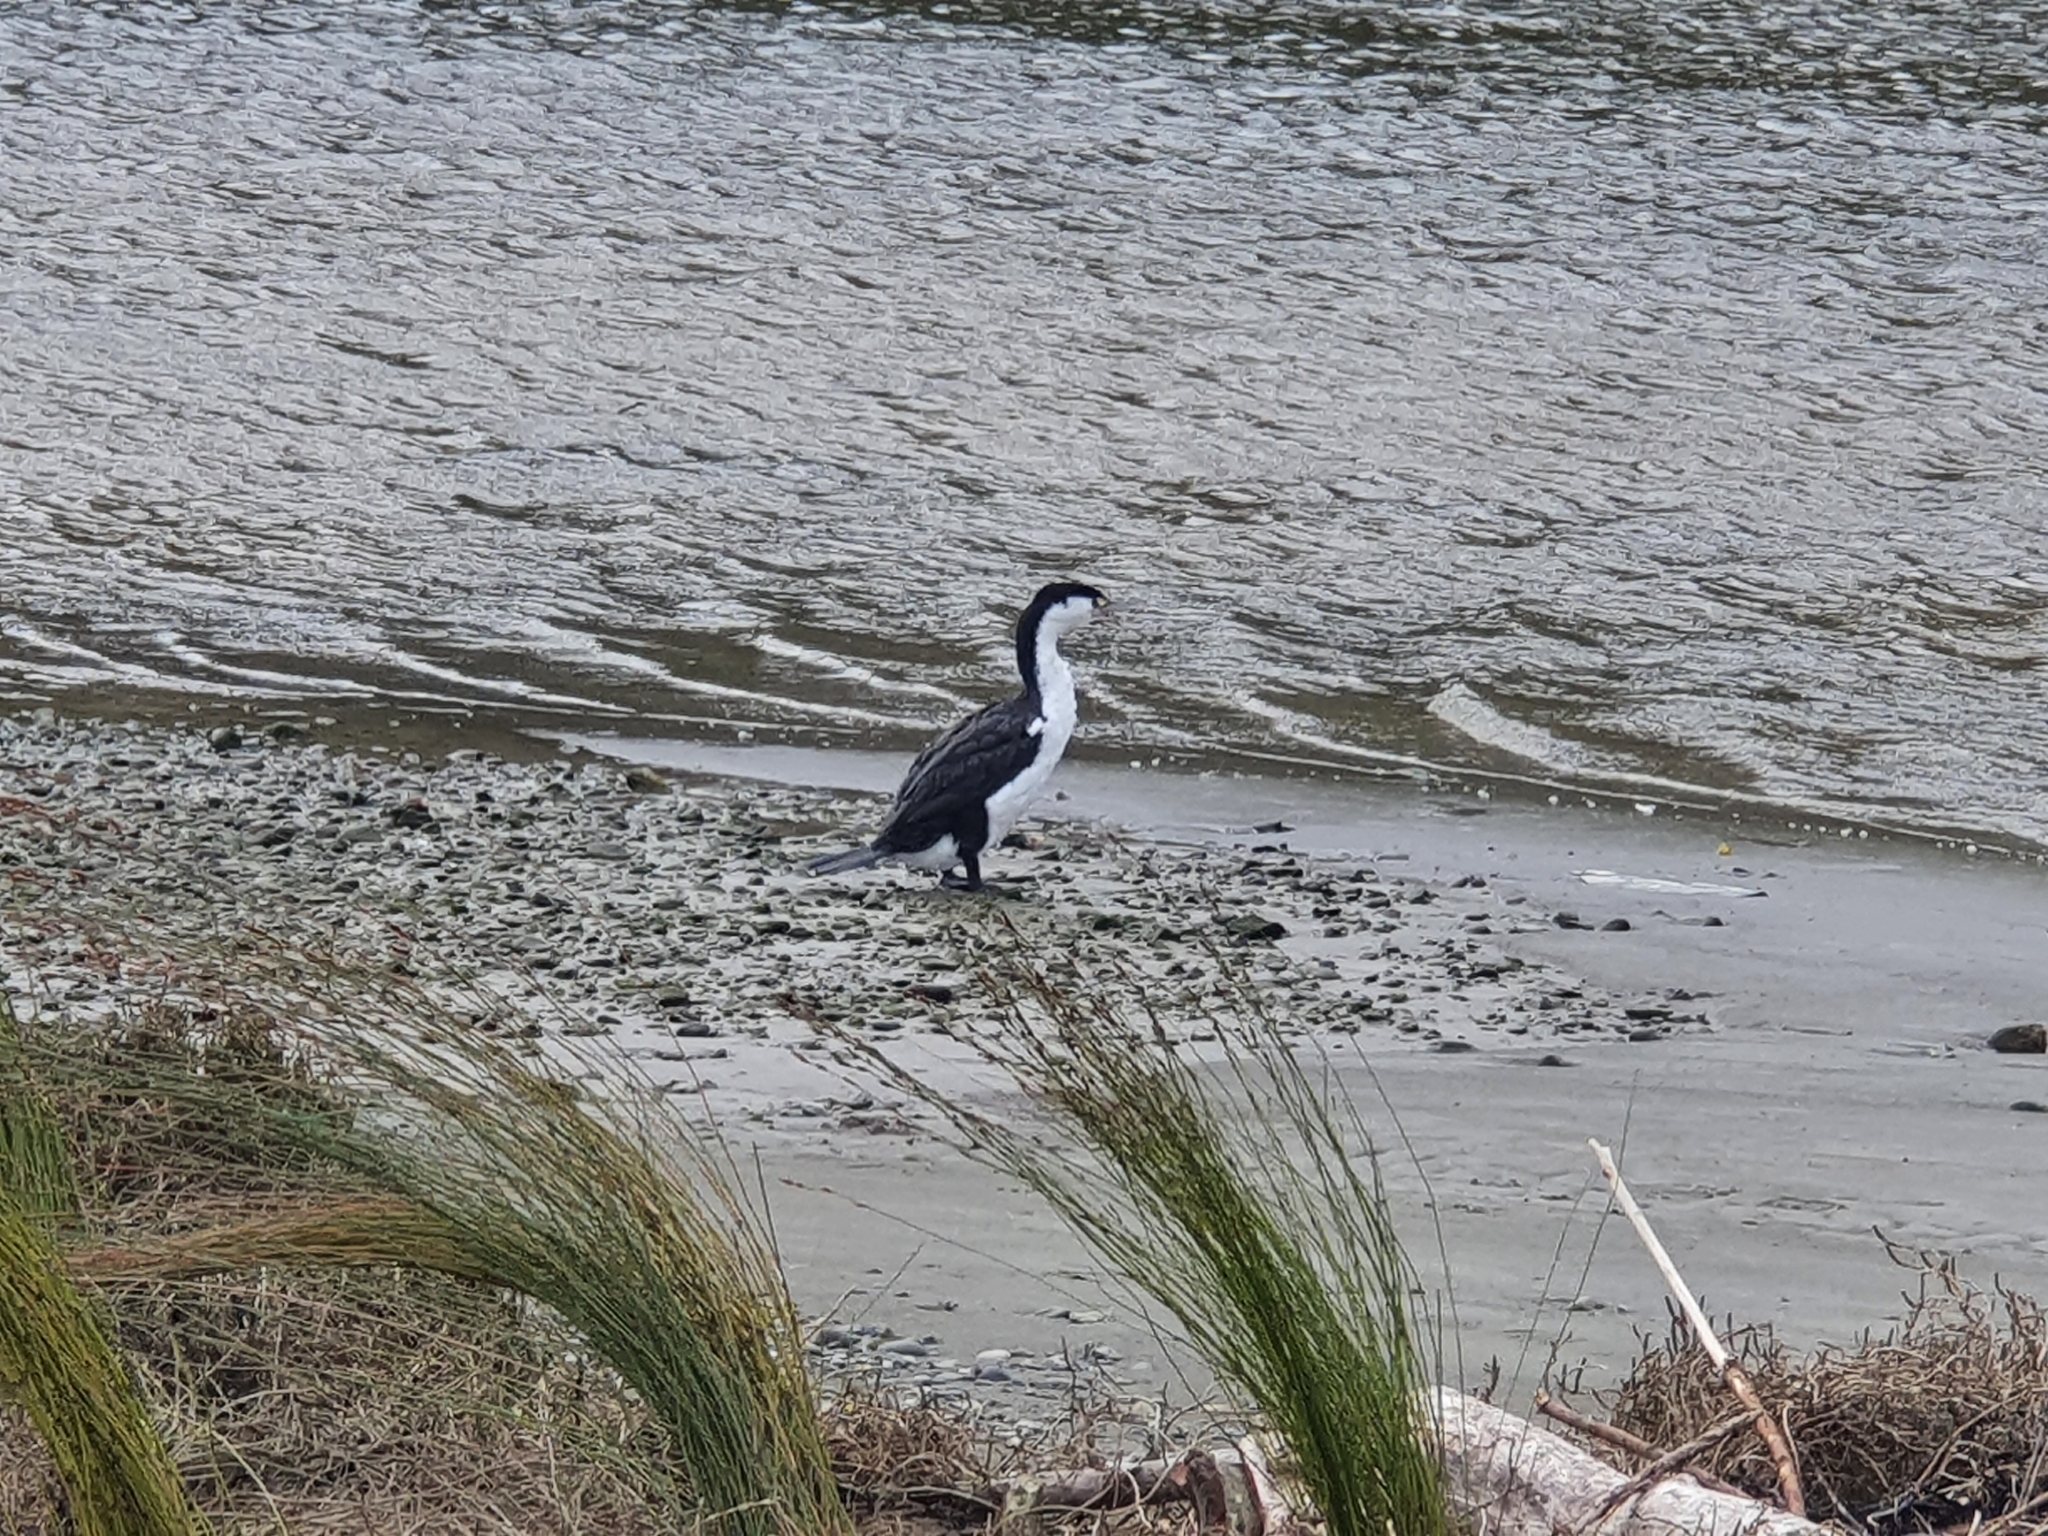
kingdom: Animalia
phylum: Chordata
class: Aves
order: Suliformes
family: Phalacrocoracidae
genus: Phalacrocorax
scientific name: Phalacrocorax varius
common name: Pied cormorant
